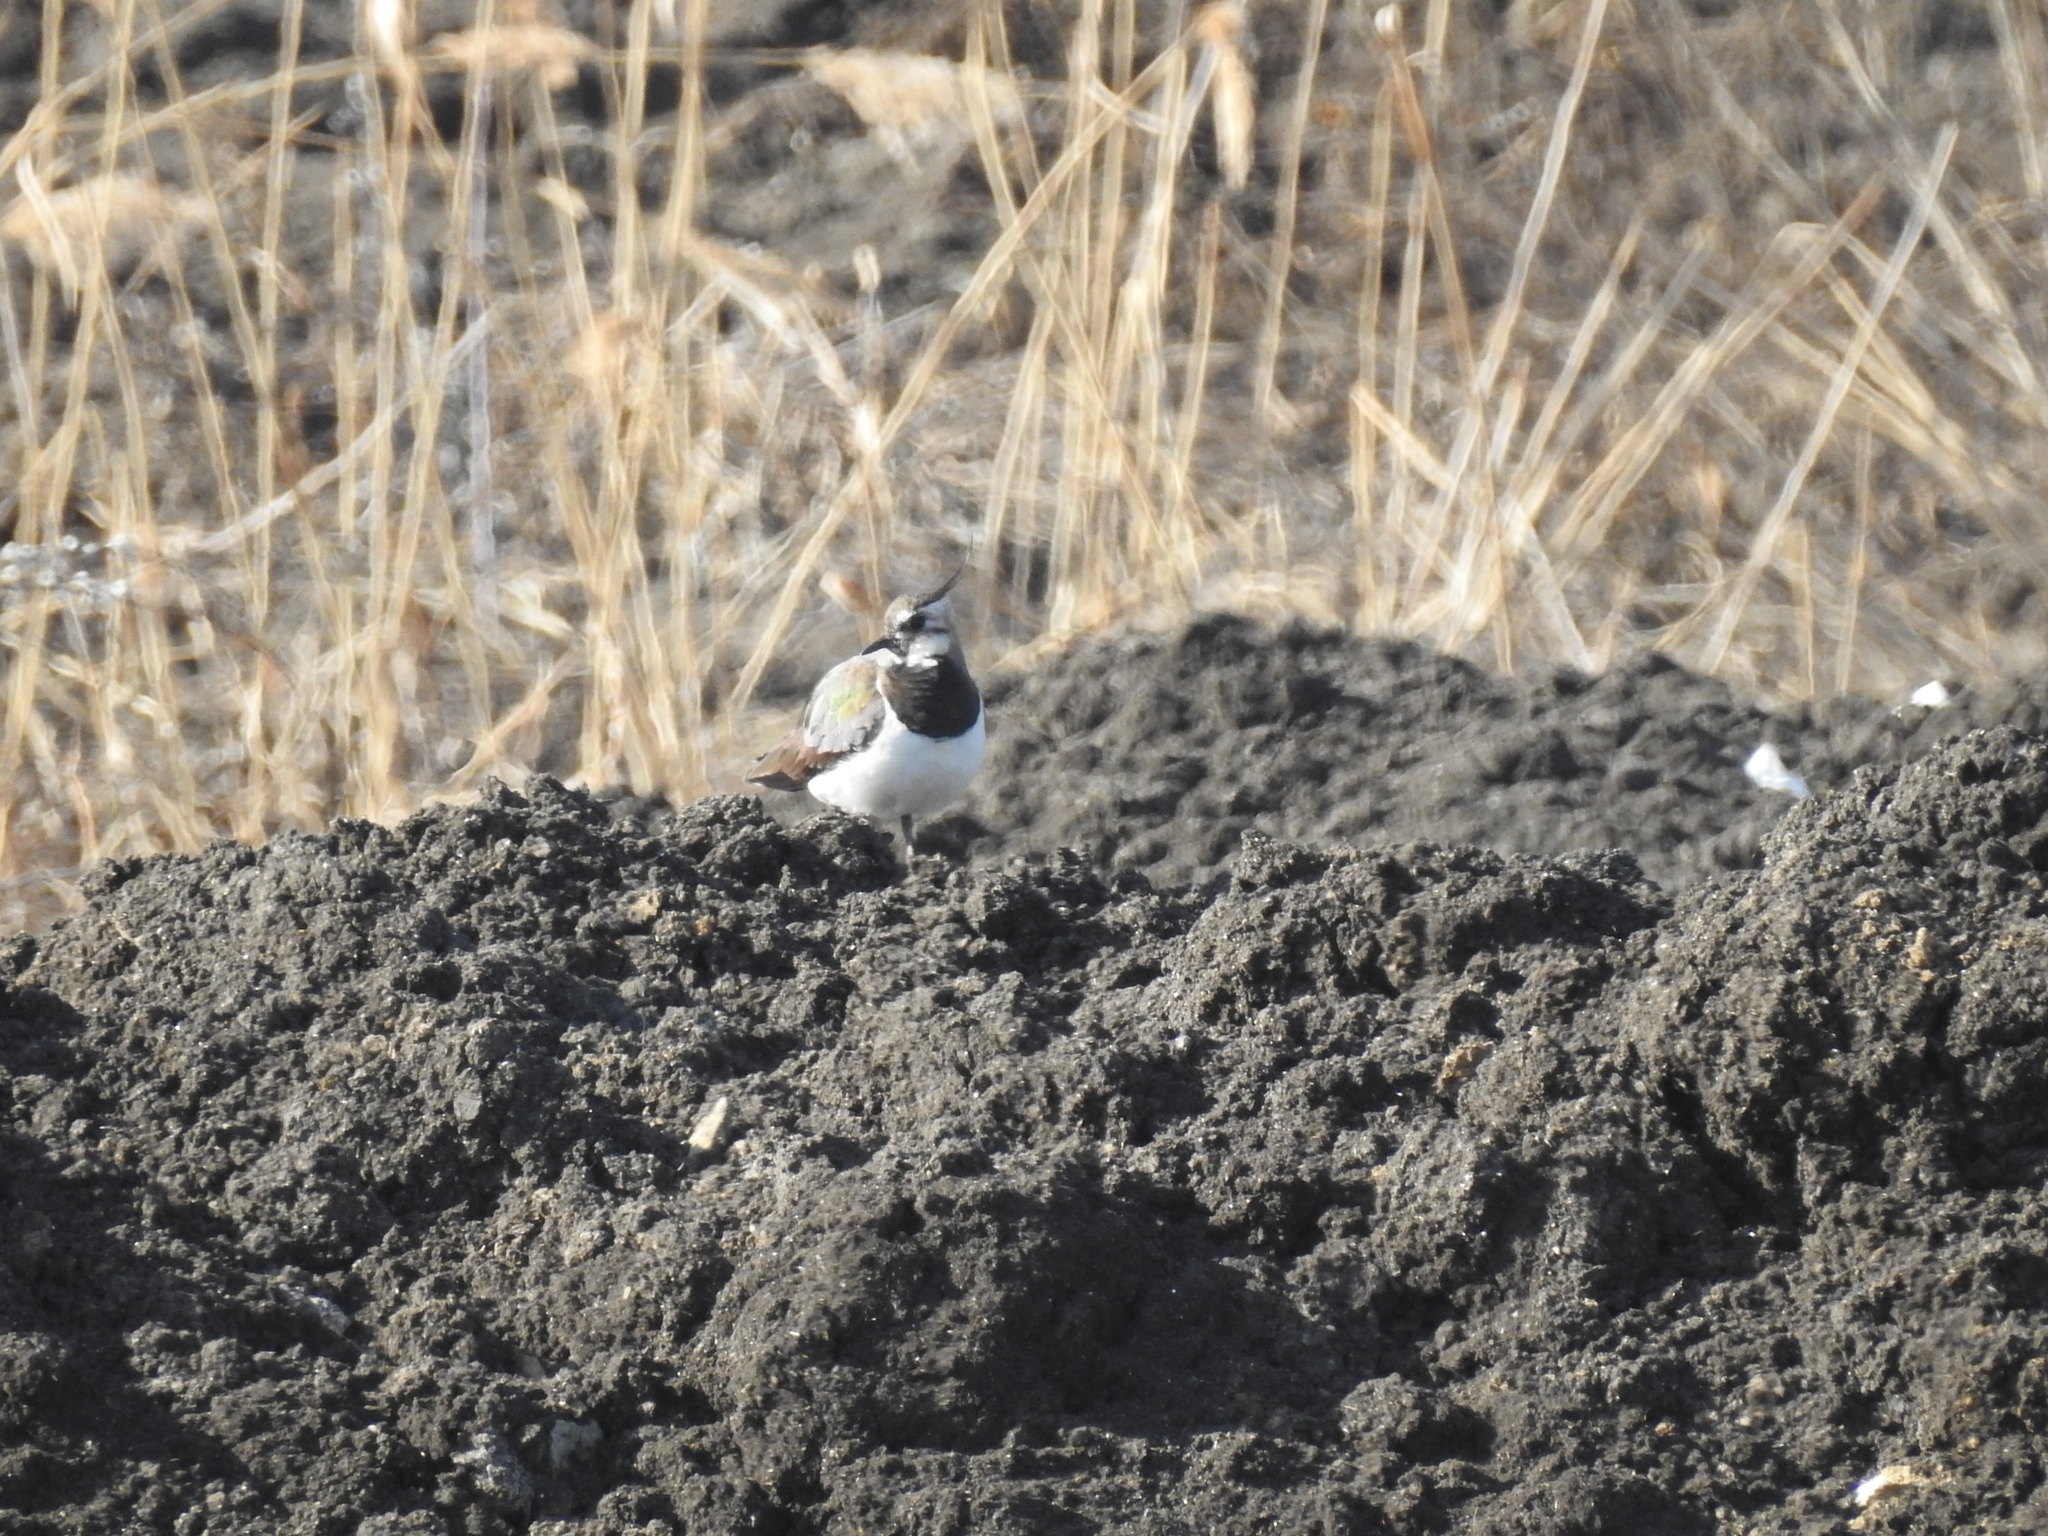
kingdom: Animalia
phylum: Chordata
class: Aves
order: Charadriiformes
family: Charadriidae
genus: Vanellus
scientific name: Vanellus vanellus
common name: Northern lapwing
